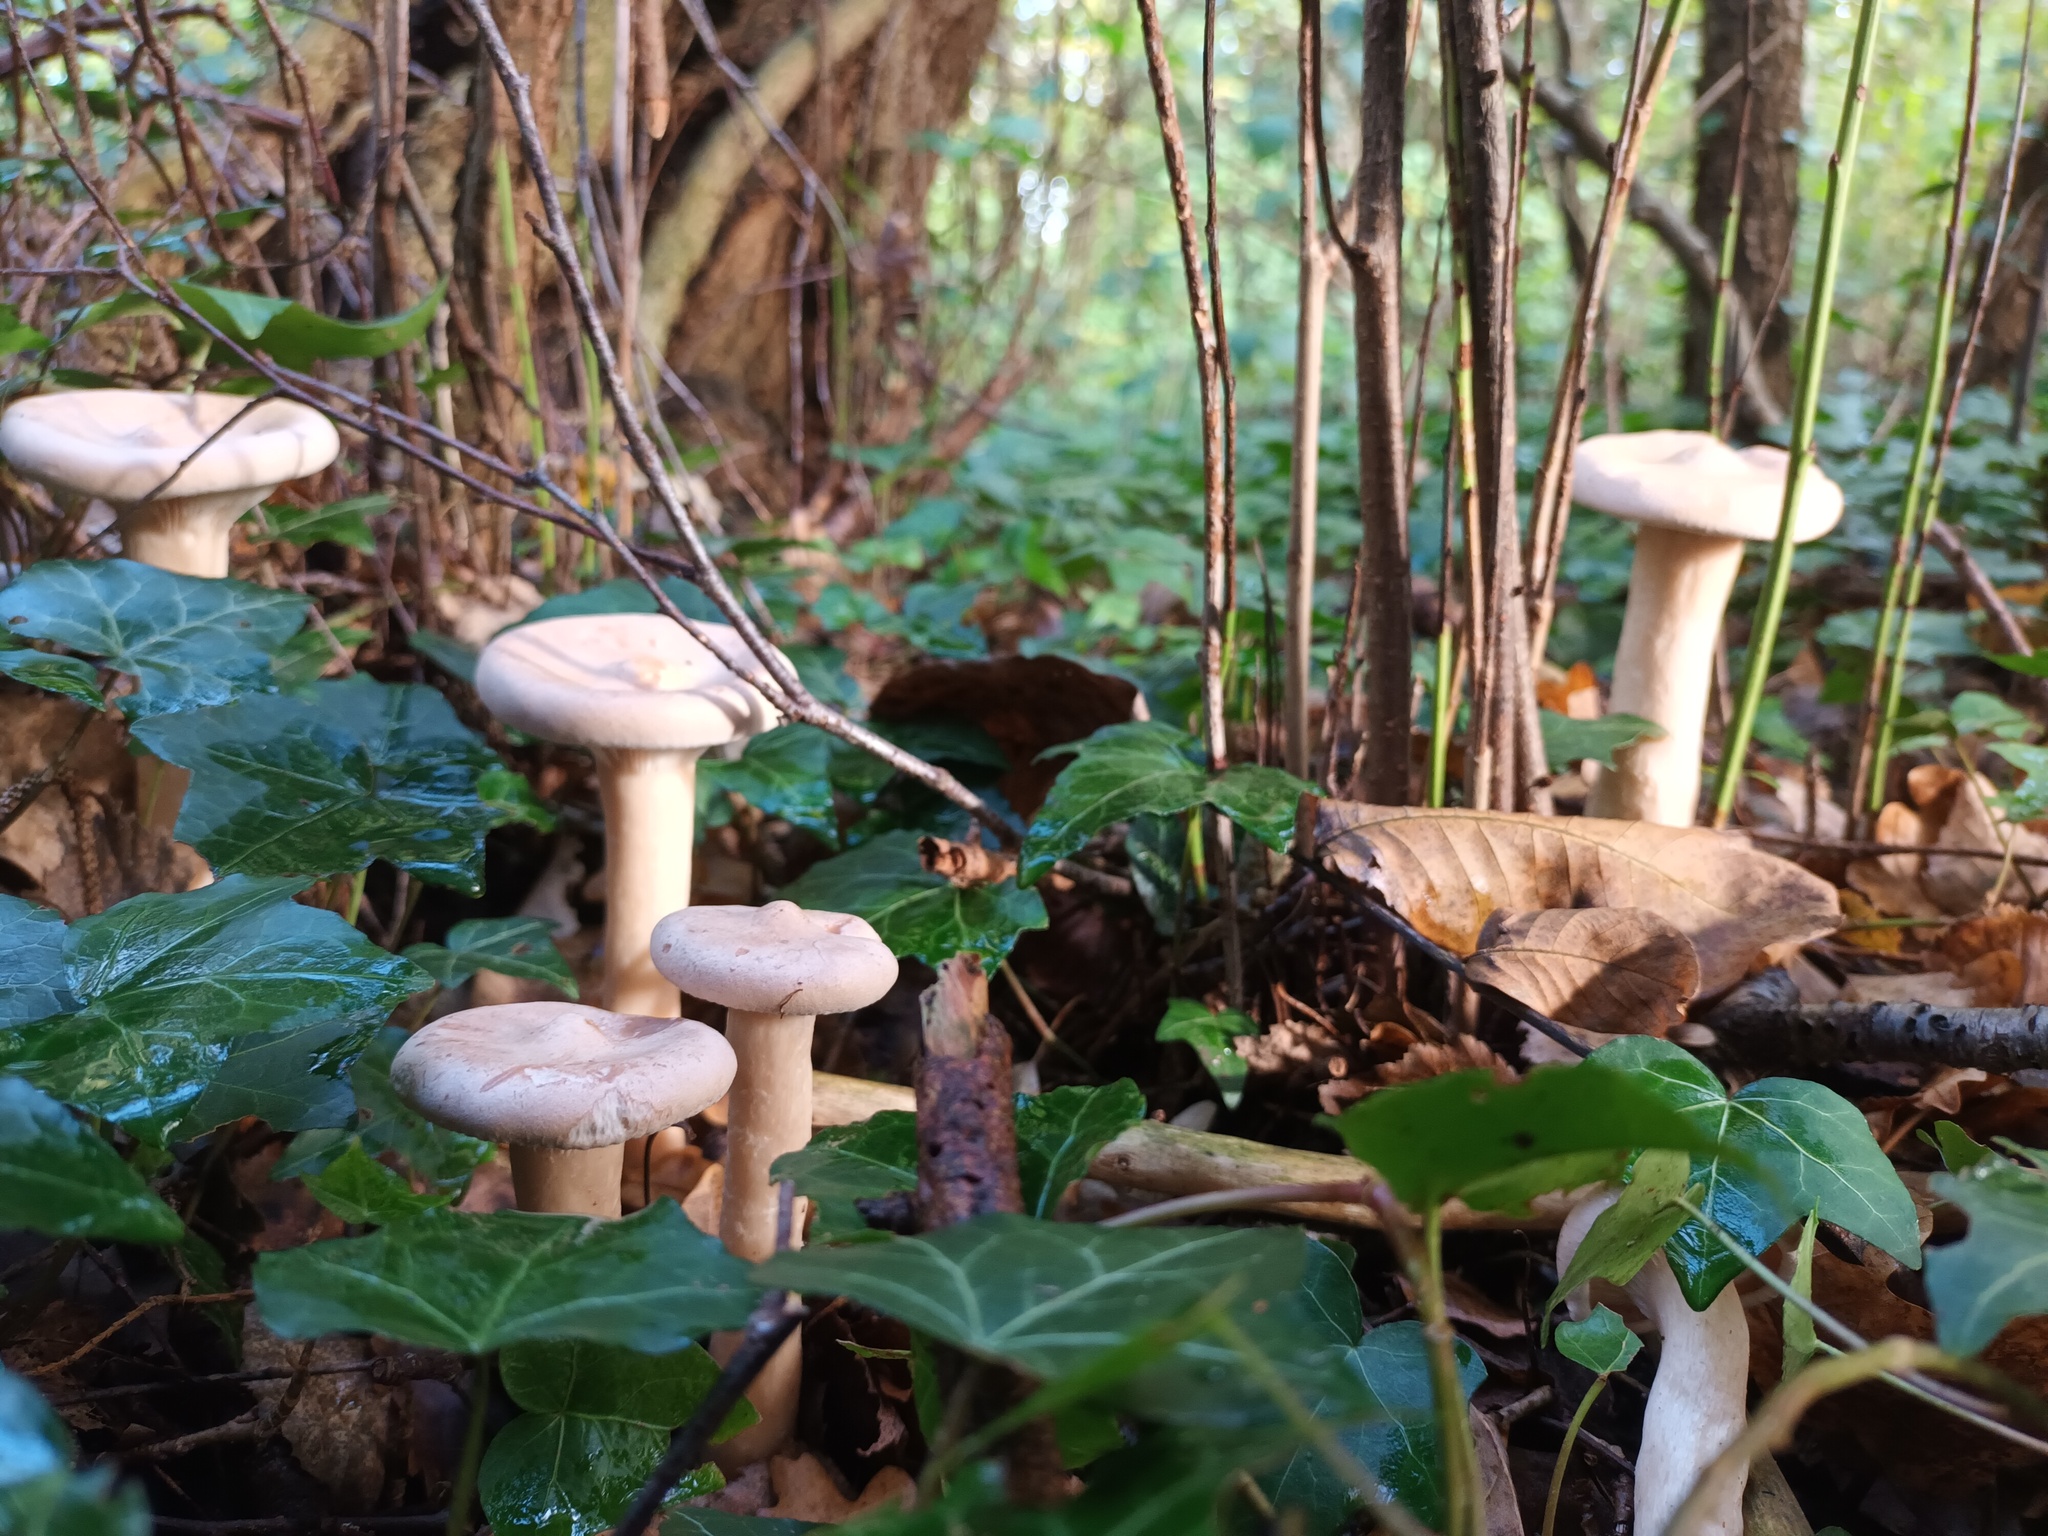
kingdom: Fungi
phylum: Basidiomycota
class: Agaricomycetes
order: Agaricales
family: Tricholomataceae
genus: Infundibulicybe
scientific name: Infundibulicybe geotropa
